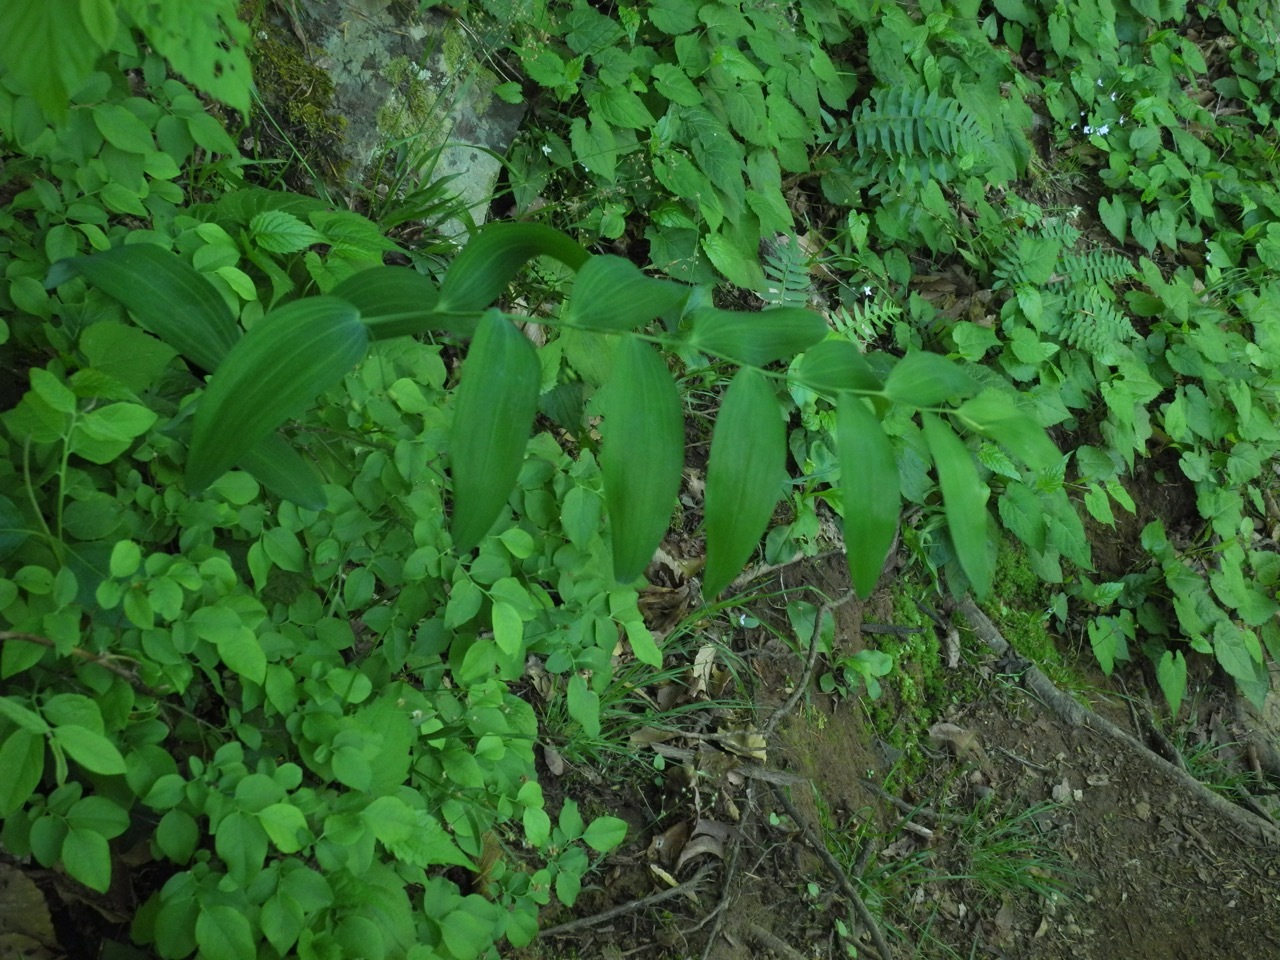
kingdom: Plantae
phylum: Tracheophyta
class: Liliopsida
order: Asparagales
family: Asparagaceae
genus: Polygonatum
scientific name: Polygonatum biflorum
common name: American solomon's-seal
